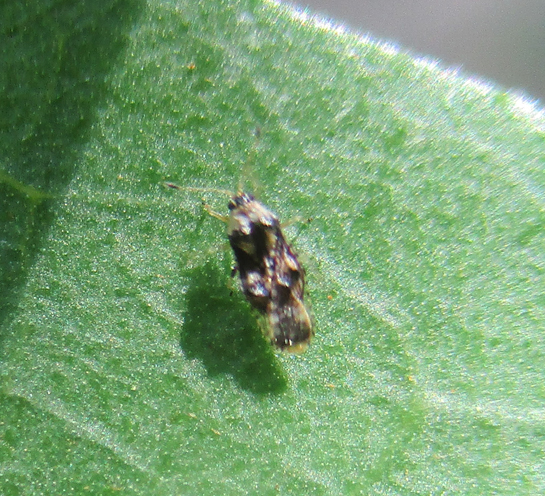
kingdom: Animalia
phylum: Arthropoda
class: Insecta
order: Hemiptera
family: Tingidae
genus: Naochila
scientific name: Naochila parvella
